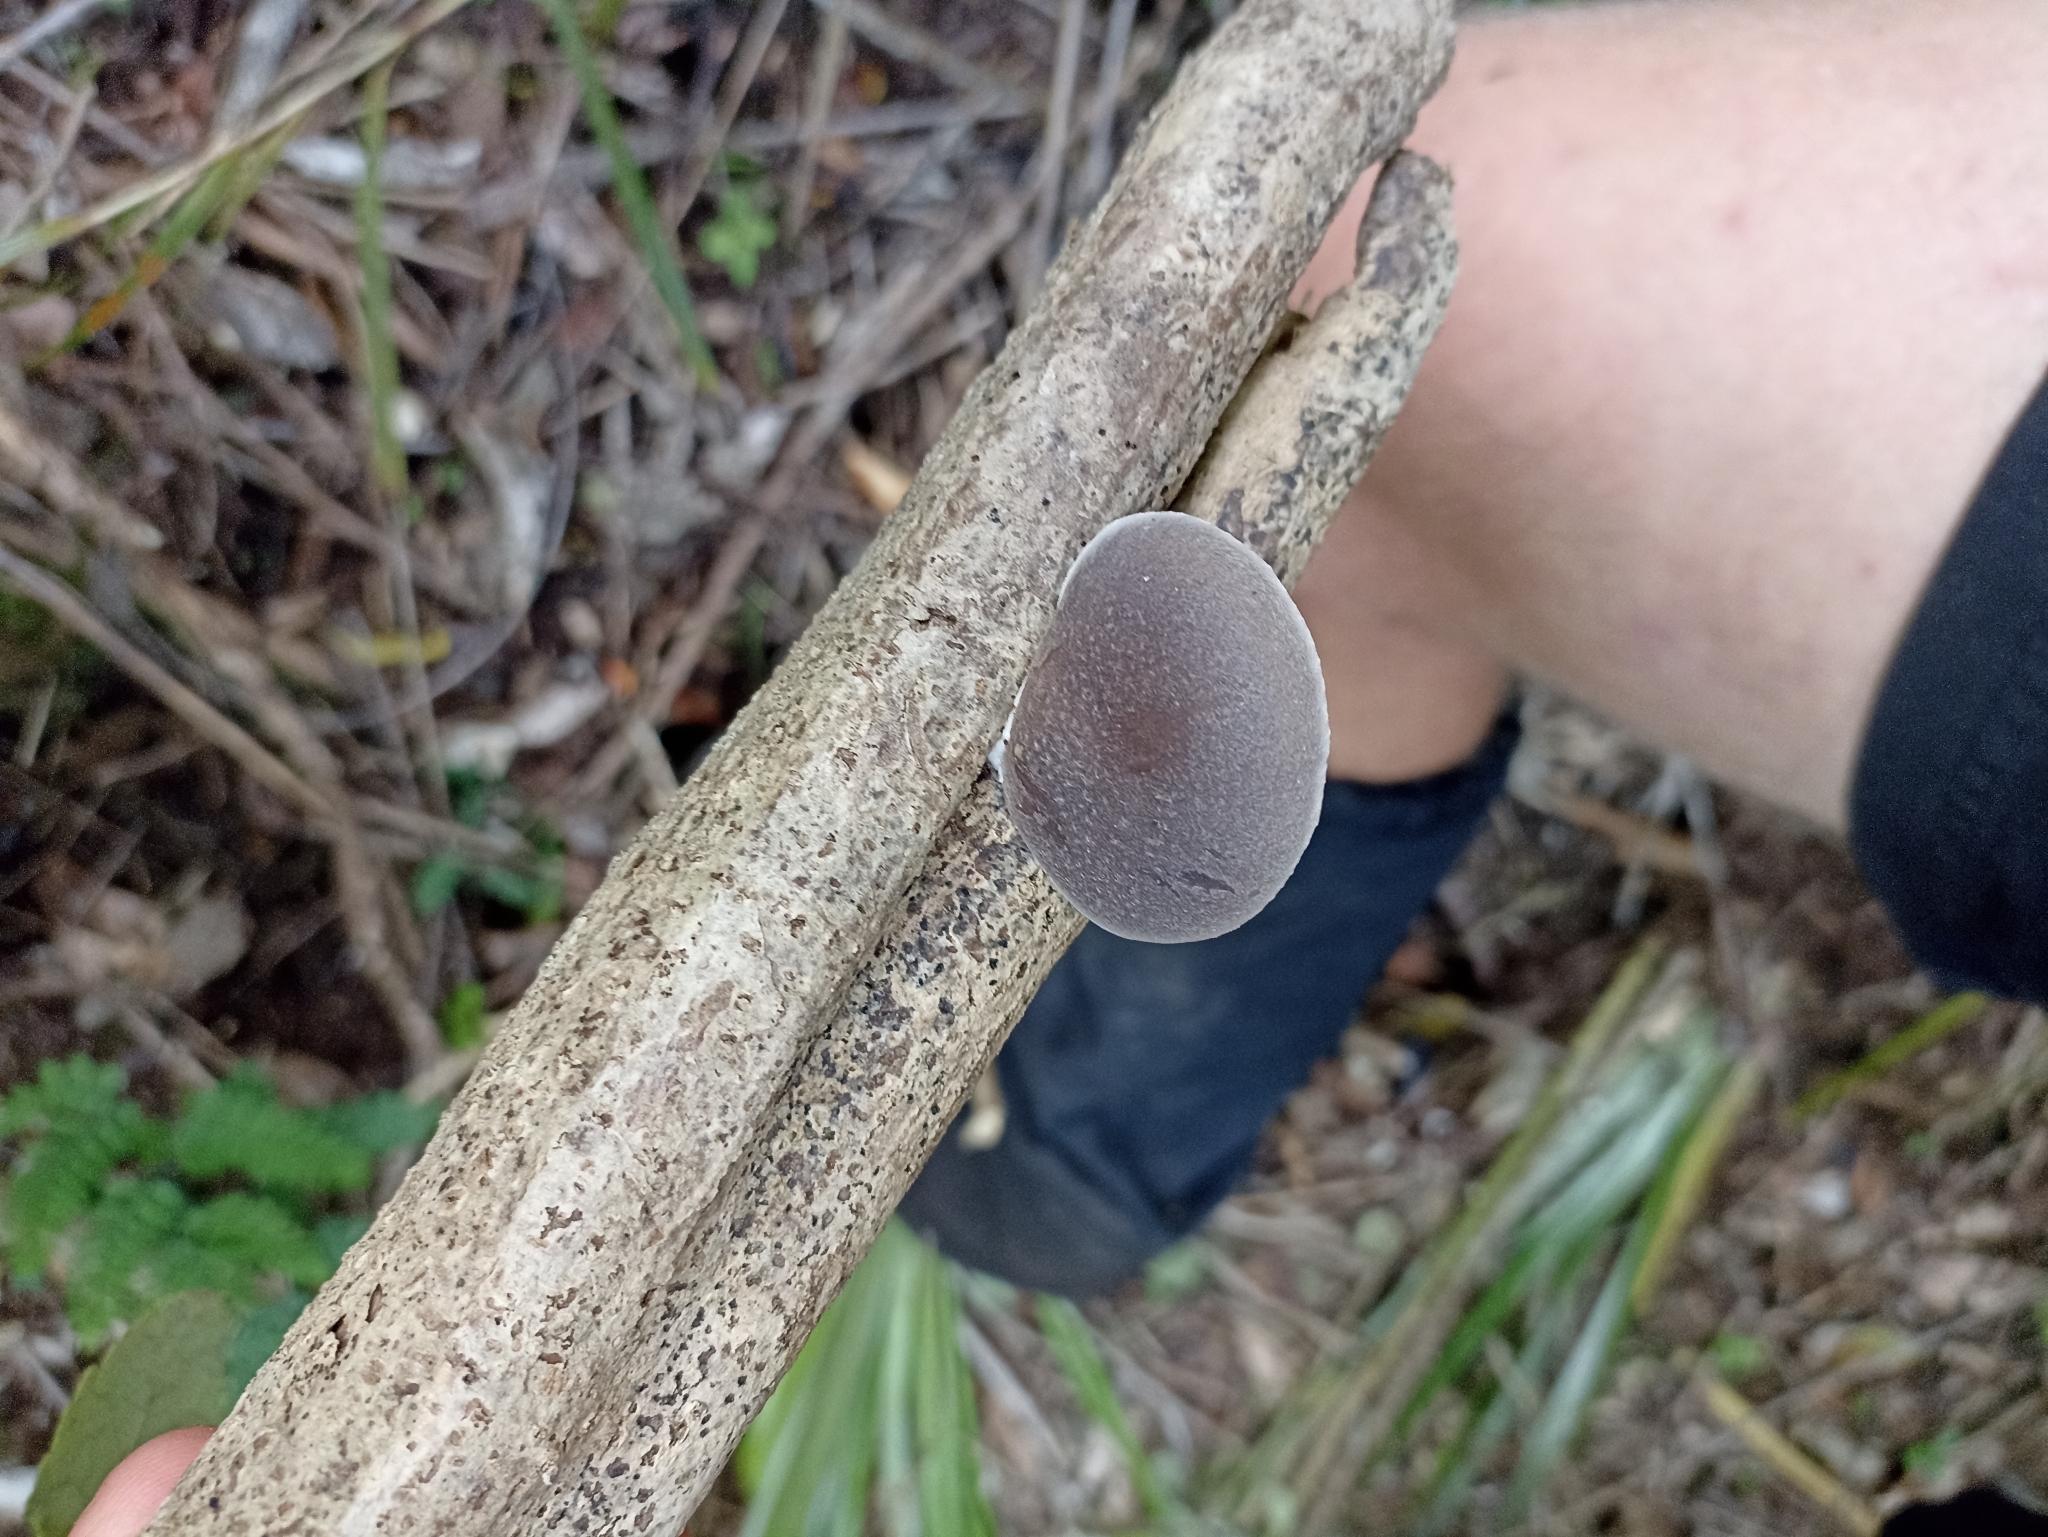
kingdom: Fungi
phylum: Basidiomycota
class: Agaricomycetes
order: Agaricales
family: Pleurotaceae
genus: Pleurotus
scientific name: Pleurotus australis
